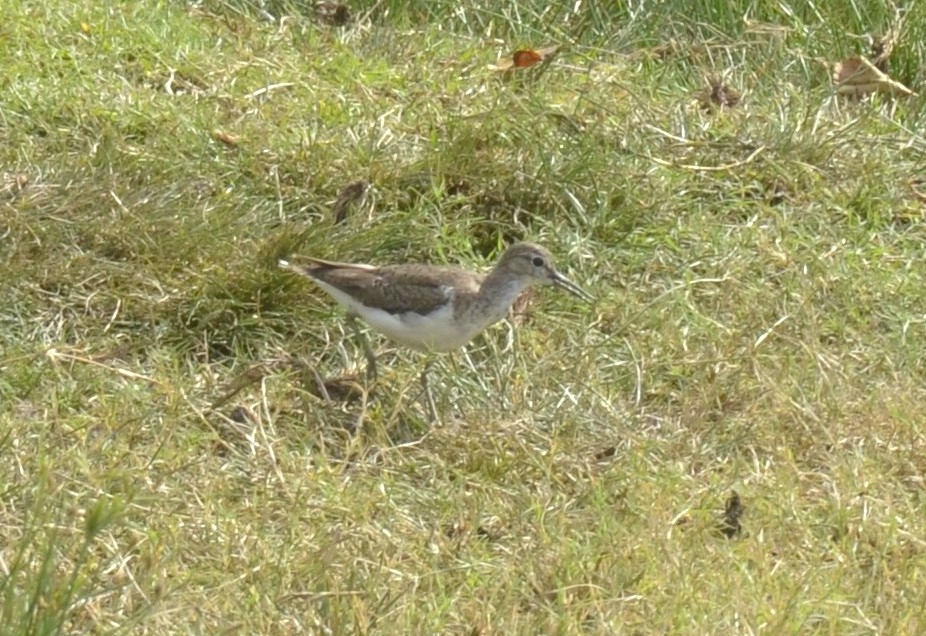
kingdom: Animalia
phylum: Chordata
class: Aves
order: Charadriiformes
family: Scolopacidae
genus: Actitis
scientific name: Actitis hypoleucos
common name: Common sandpiper
